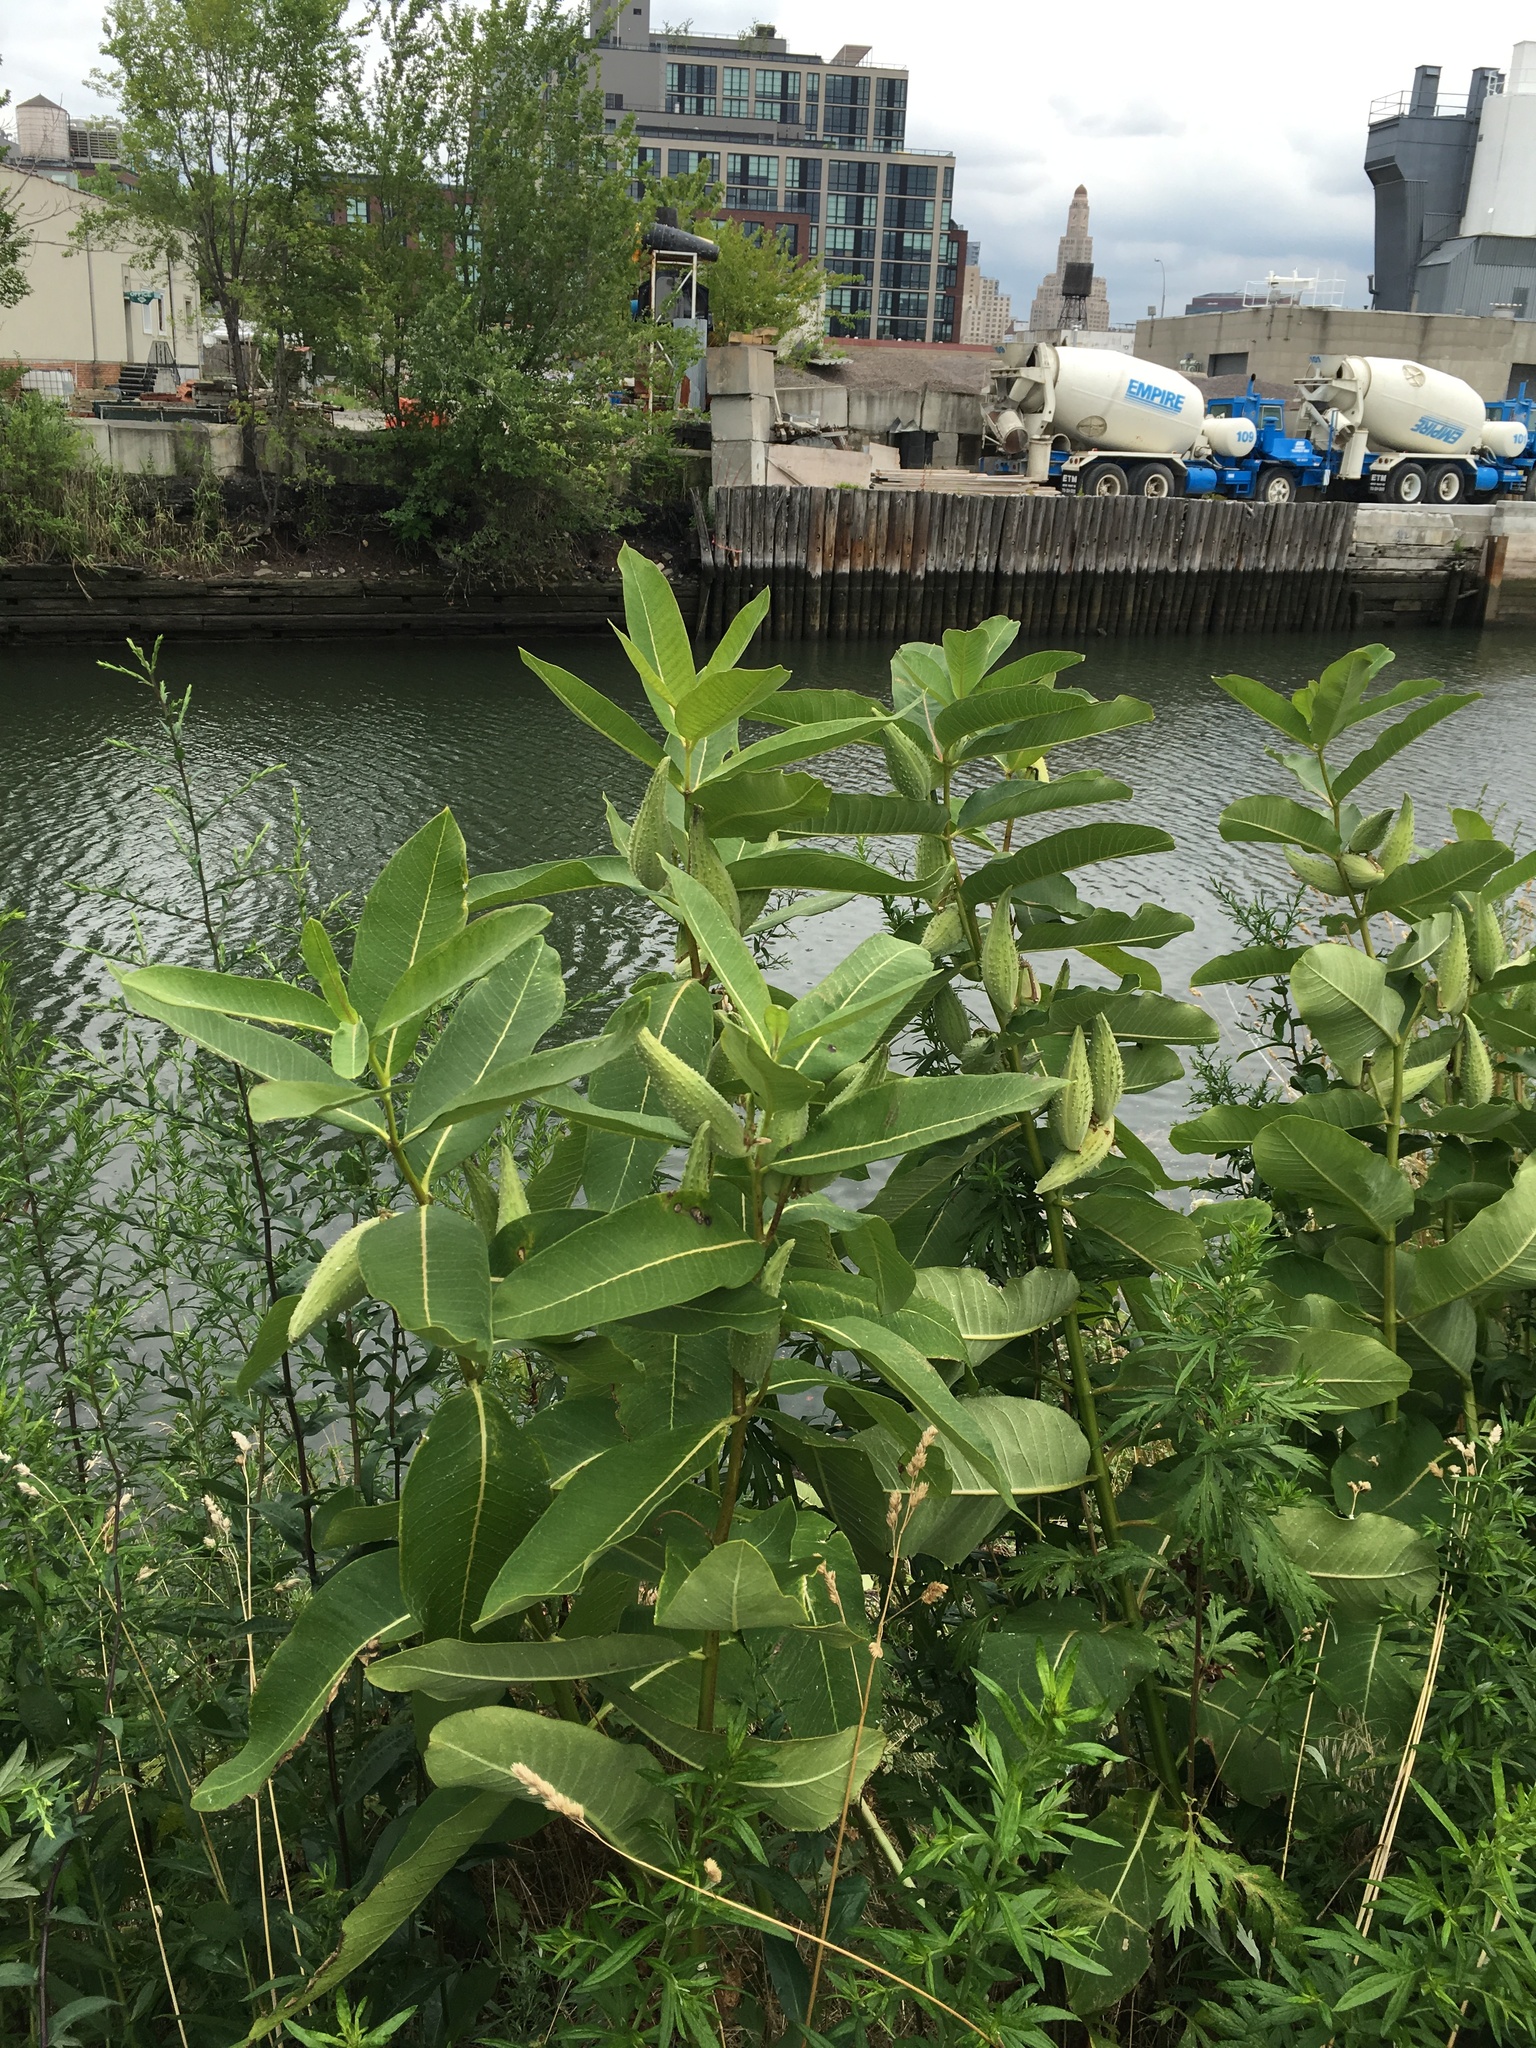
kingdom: Plantae
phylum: Tracheophyta
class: Magnoliopsida
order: Gentianales
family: Apocynaceae
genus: Asclepias
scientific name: Asclepias syriaca
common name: Common milkweed
